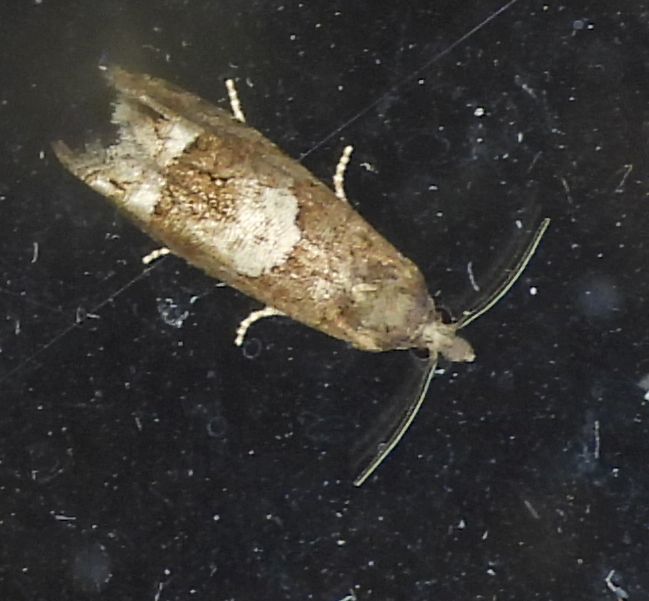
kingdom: Animalia
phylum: Arthropoda
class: Insecta
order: Lepidoptera
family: Tortricidae
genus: Eucosma
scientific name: Eucosma parmatana
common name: Aster eucosma moth
